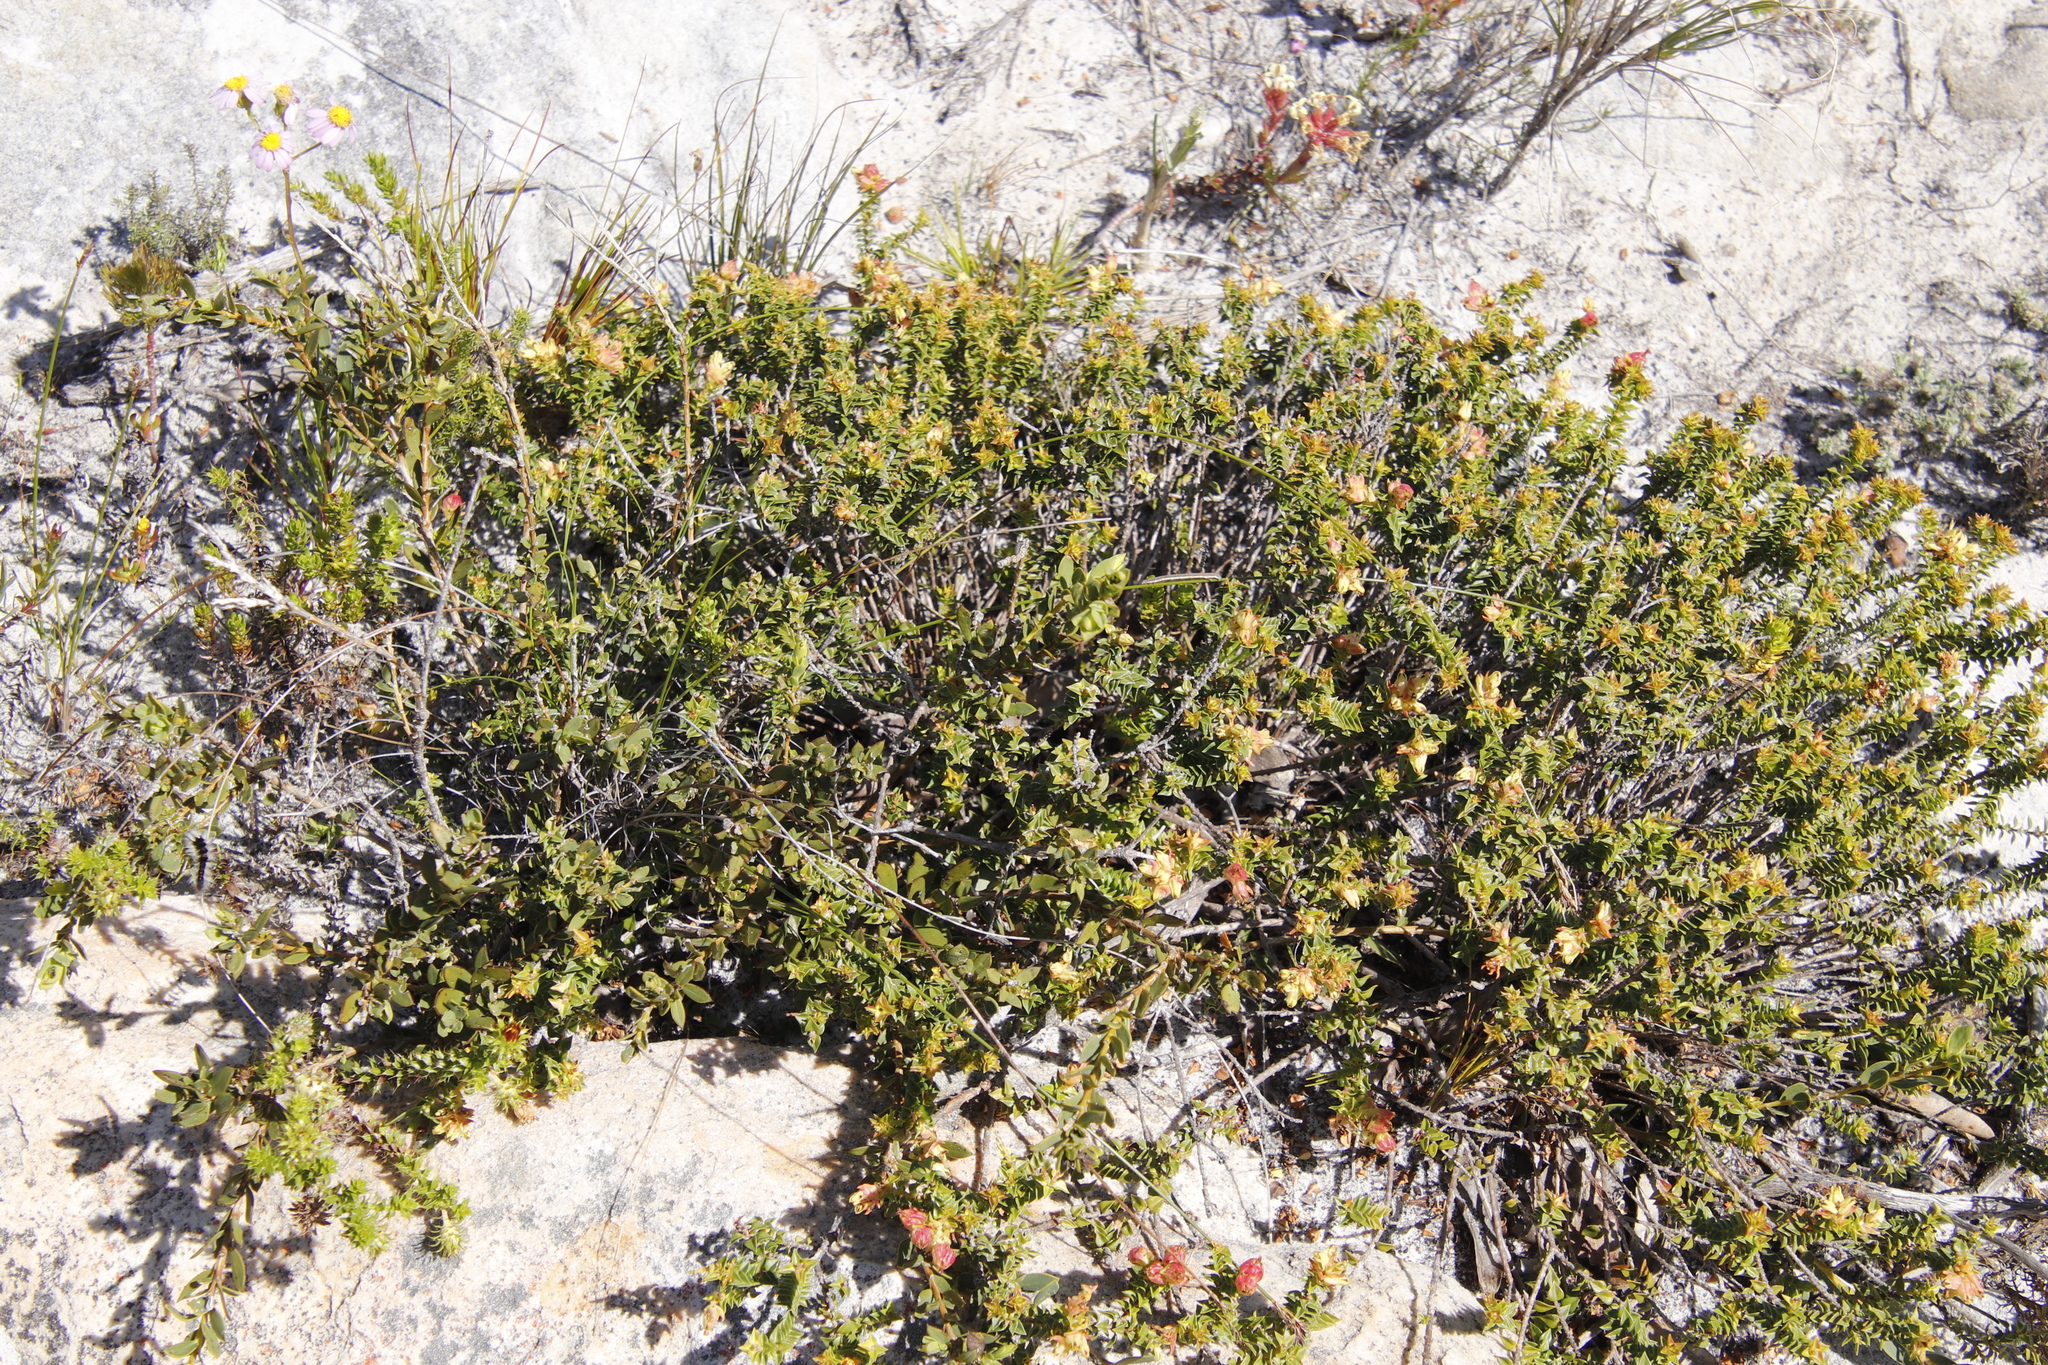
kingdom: Plantae
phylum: Tracheophyta
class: Magnoliopsida
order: Myrtales
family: Penaeaceae
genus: Penaea
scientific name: Penaea mucronata
